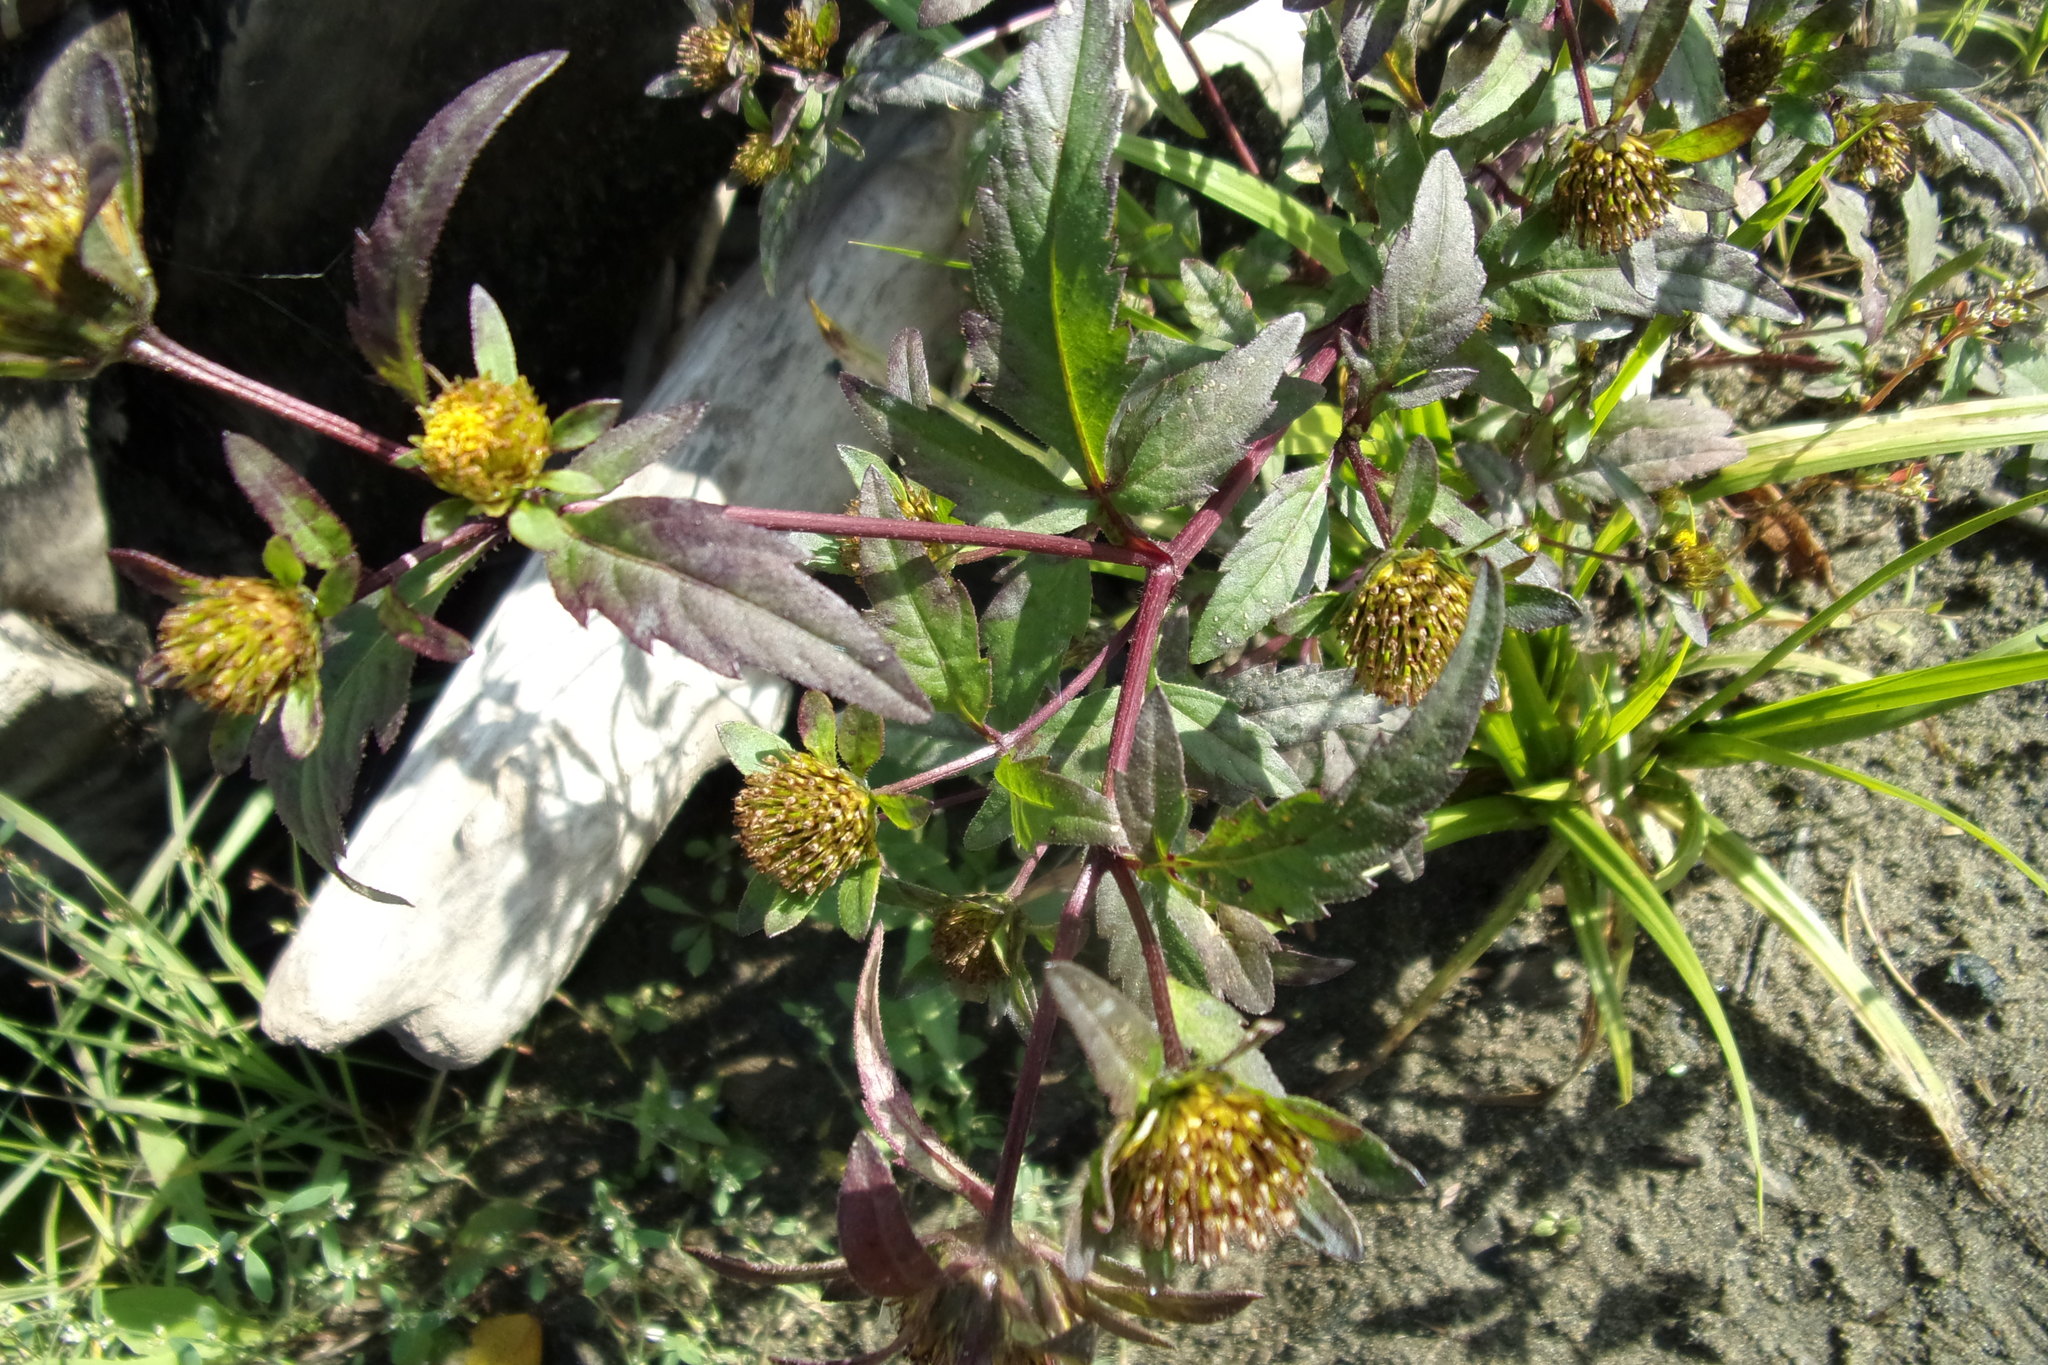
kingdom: Plantae
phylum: Tracheophyta
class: Magnoliopsida
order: Asterales
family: Asteraceae
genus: Bidens
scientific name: Bidens tripartita
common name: Trifid bur-marigold
